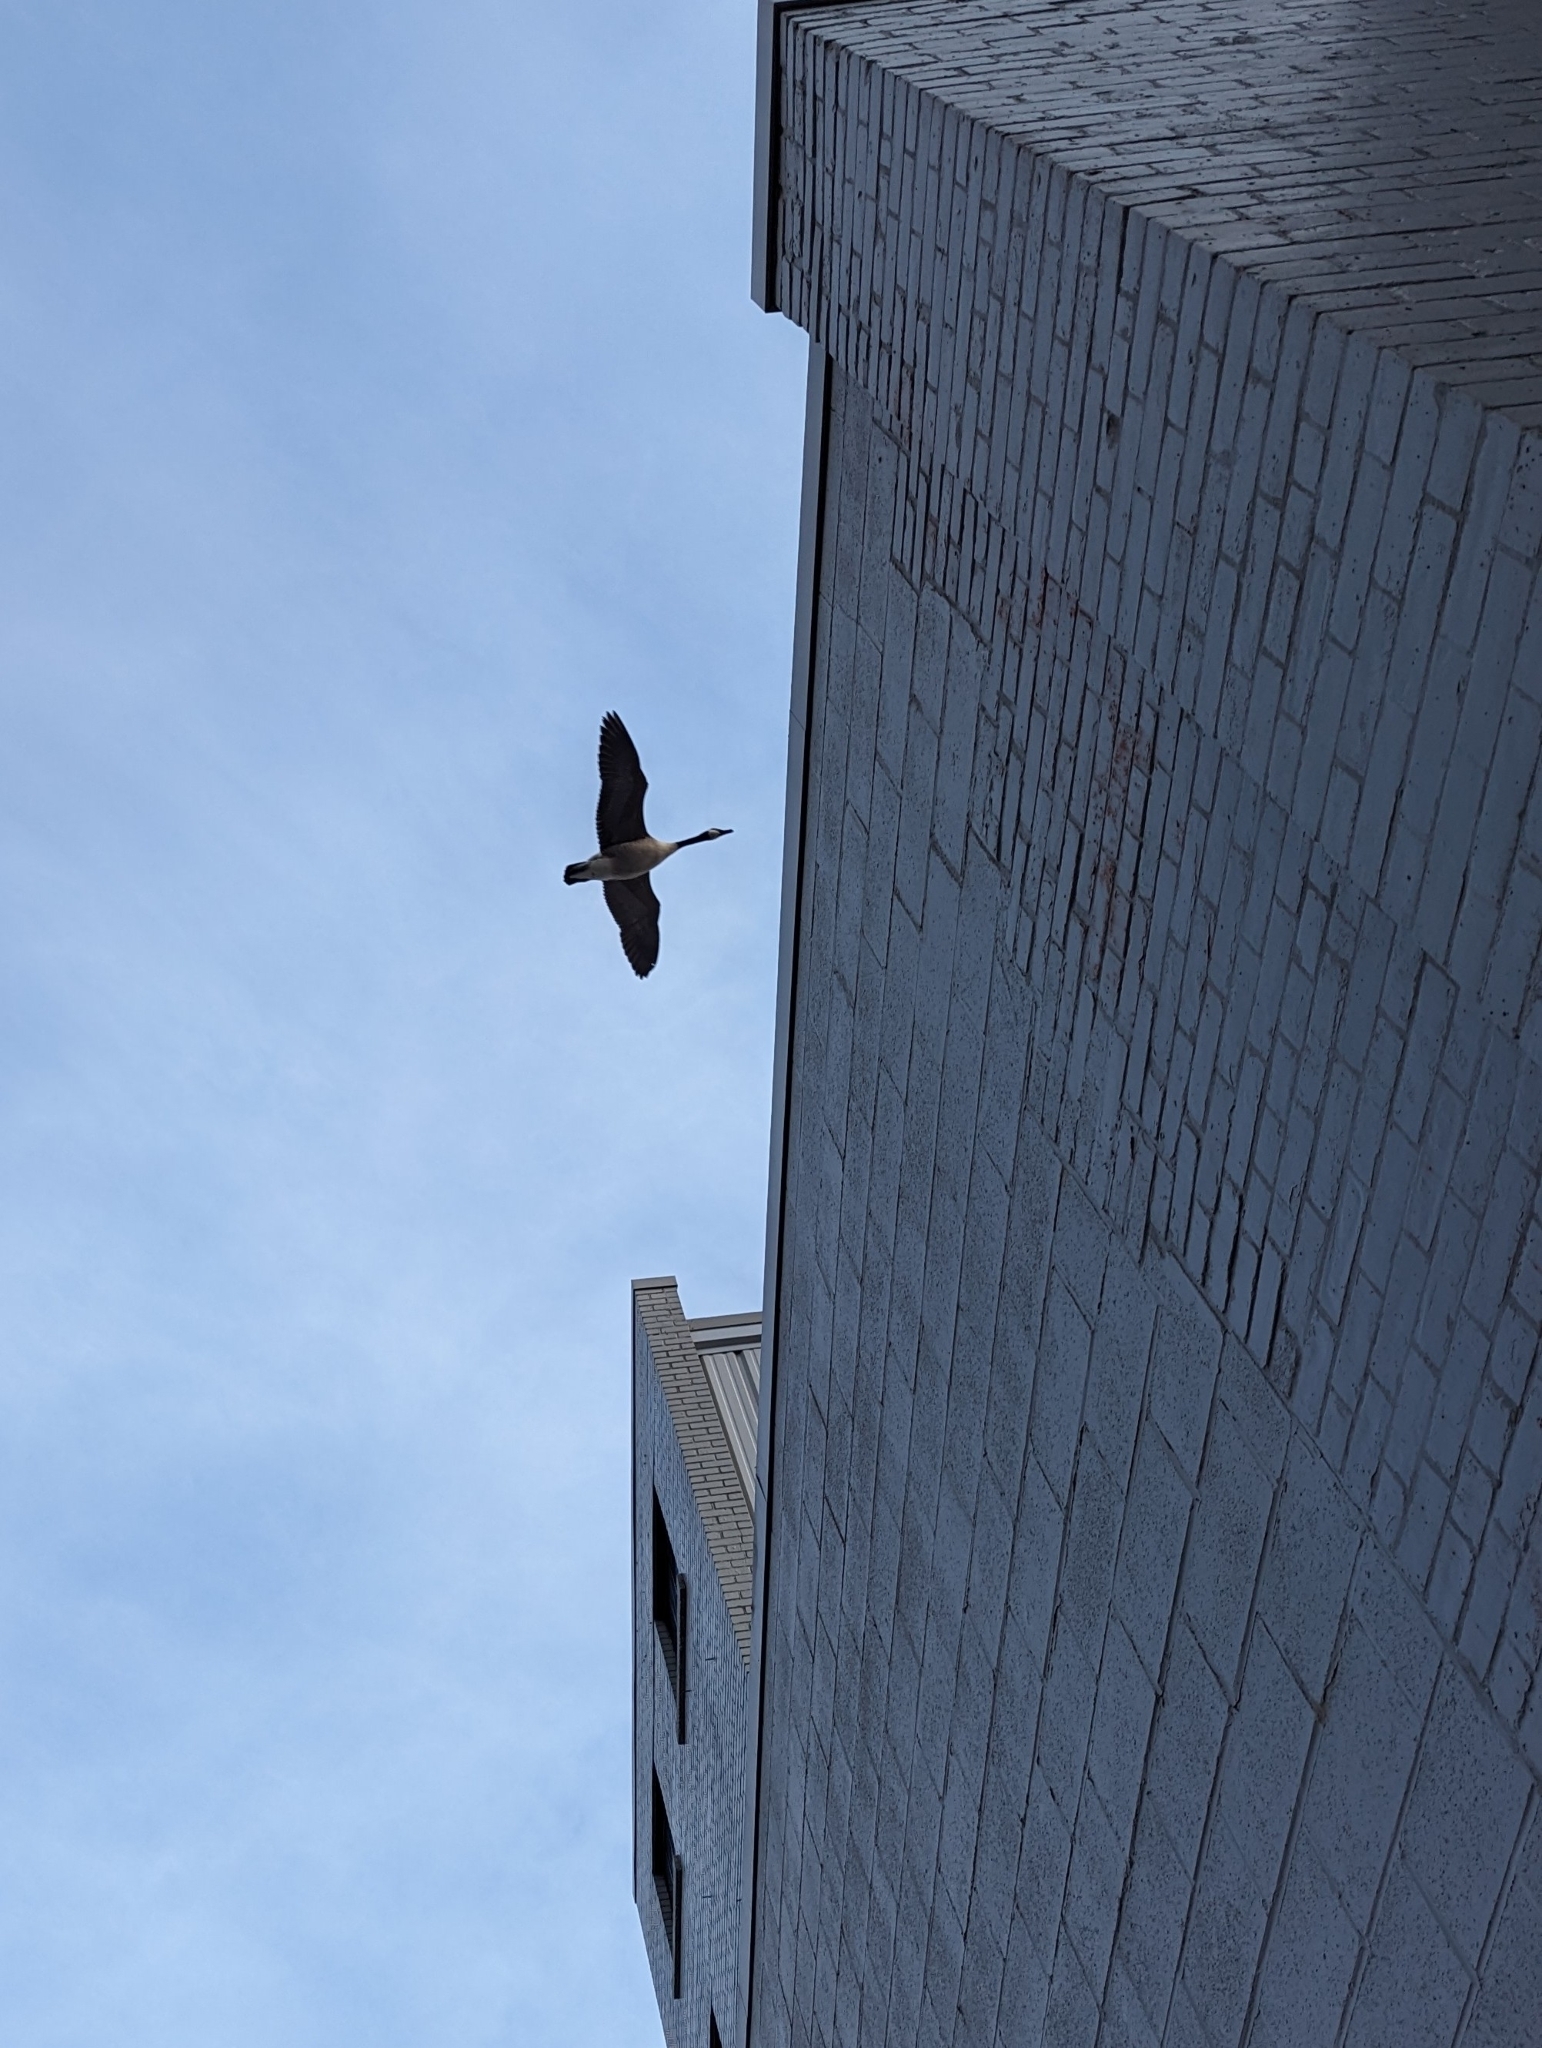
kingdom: Animalia
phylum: Chordata
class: Aves
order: Anseriformes
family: Anatidae
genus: Branta
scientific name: Branta canadensis
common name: Canada goose
